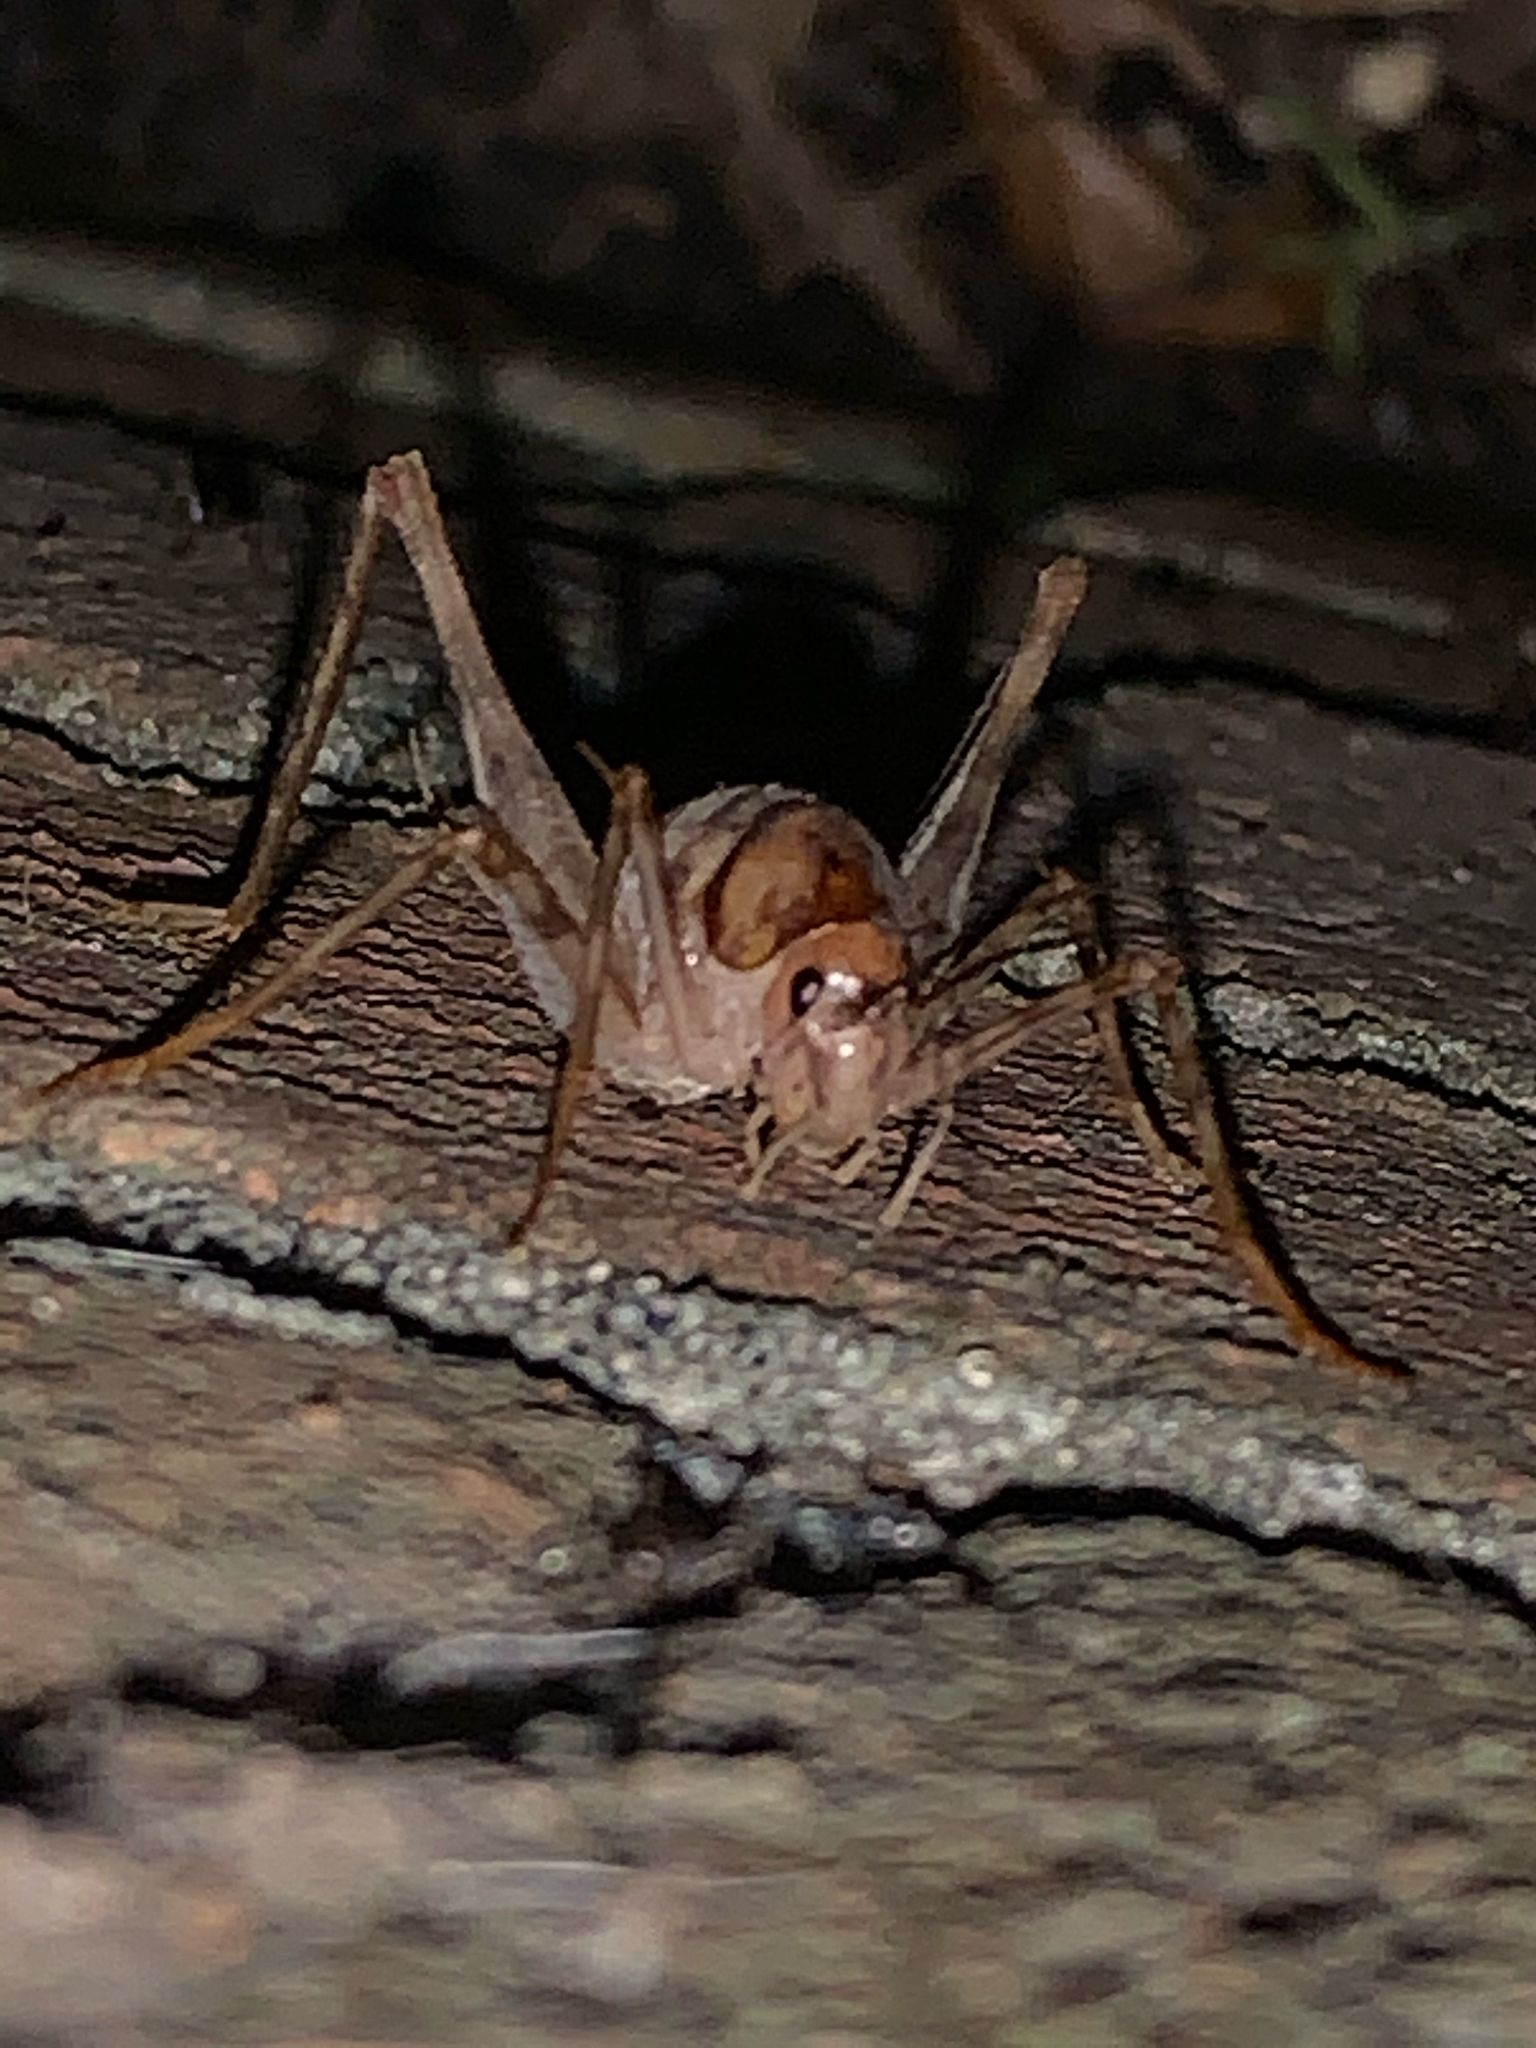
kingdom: Animalia
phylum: Arthropoda
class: Insecta
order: Orthoptera
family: Rhaphidophoridae
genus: Tachycines
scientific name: Tachycines asynamorus
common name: Greenhouse camel cricket
